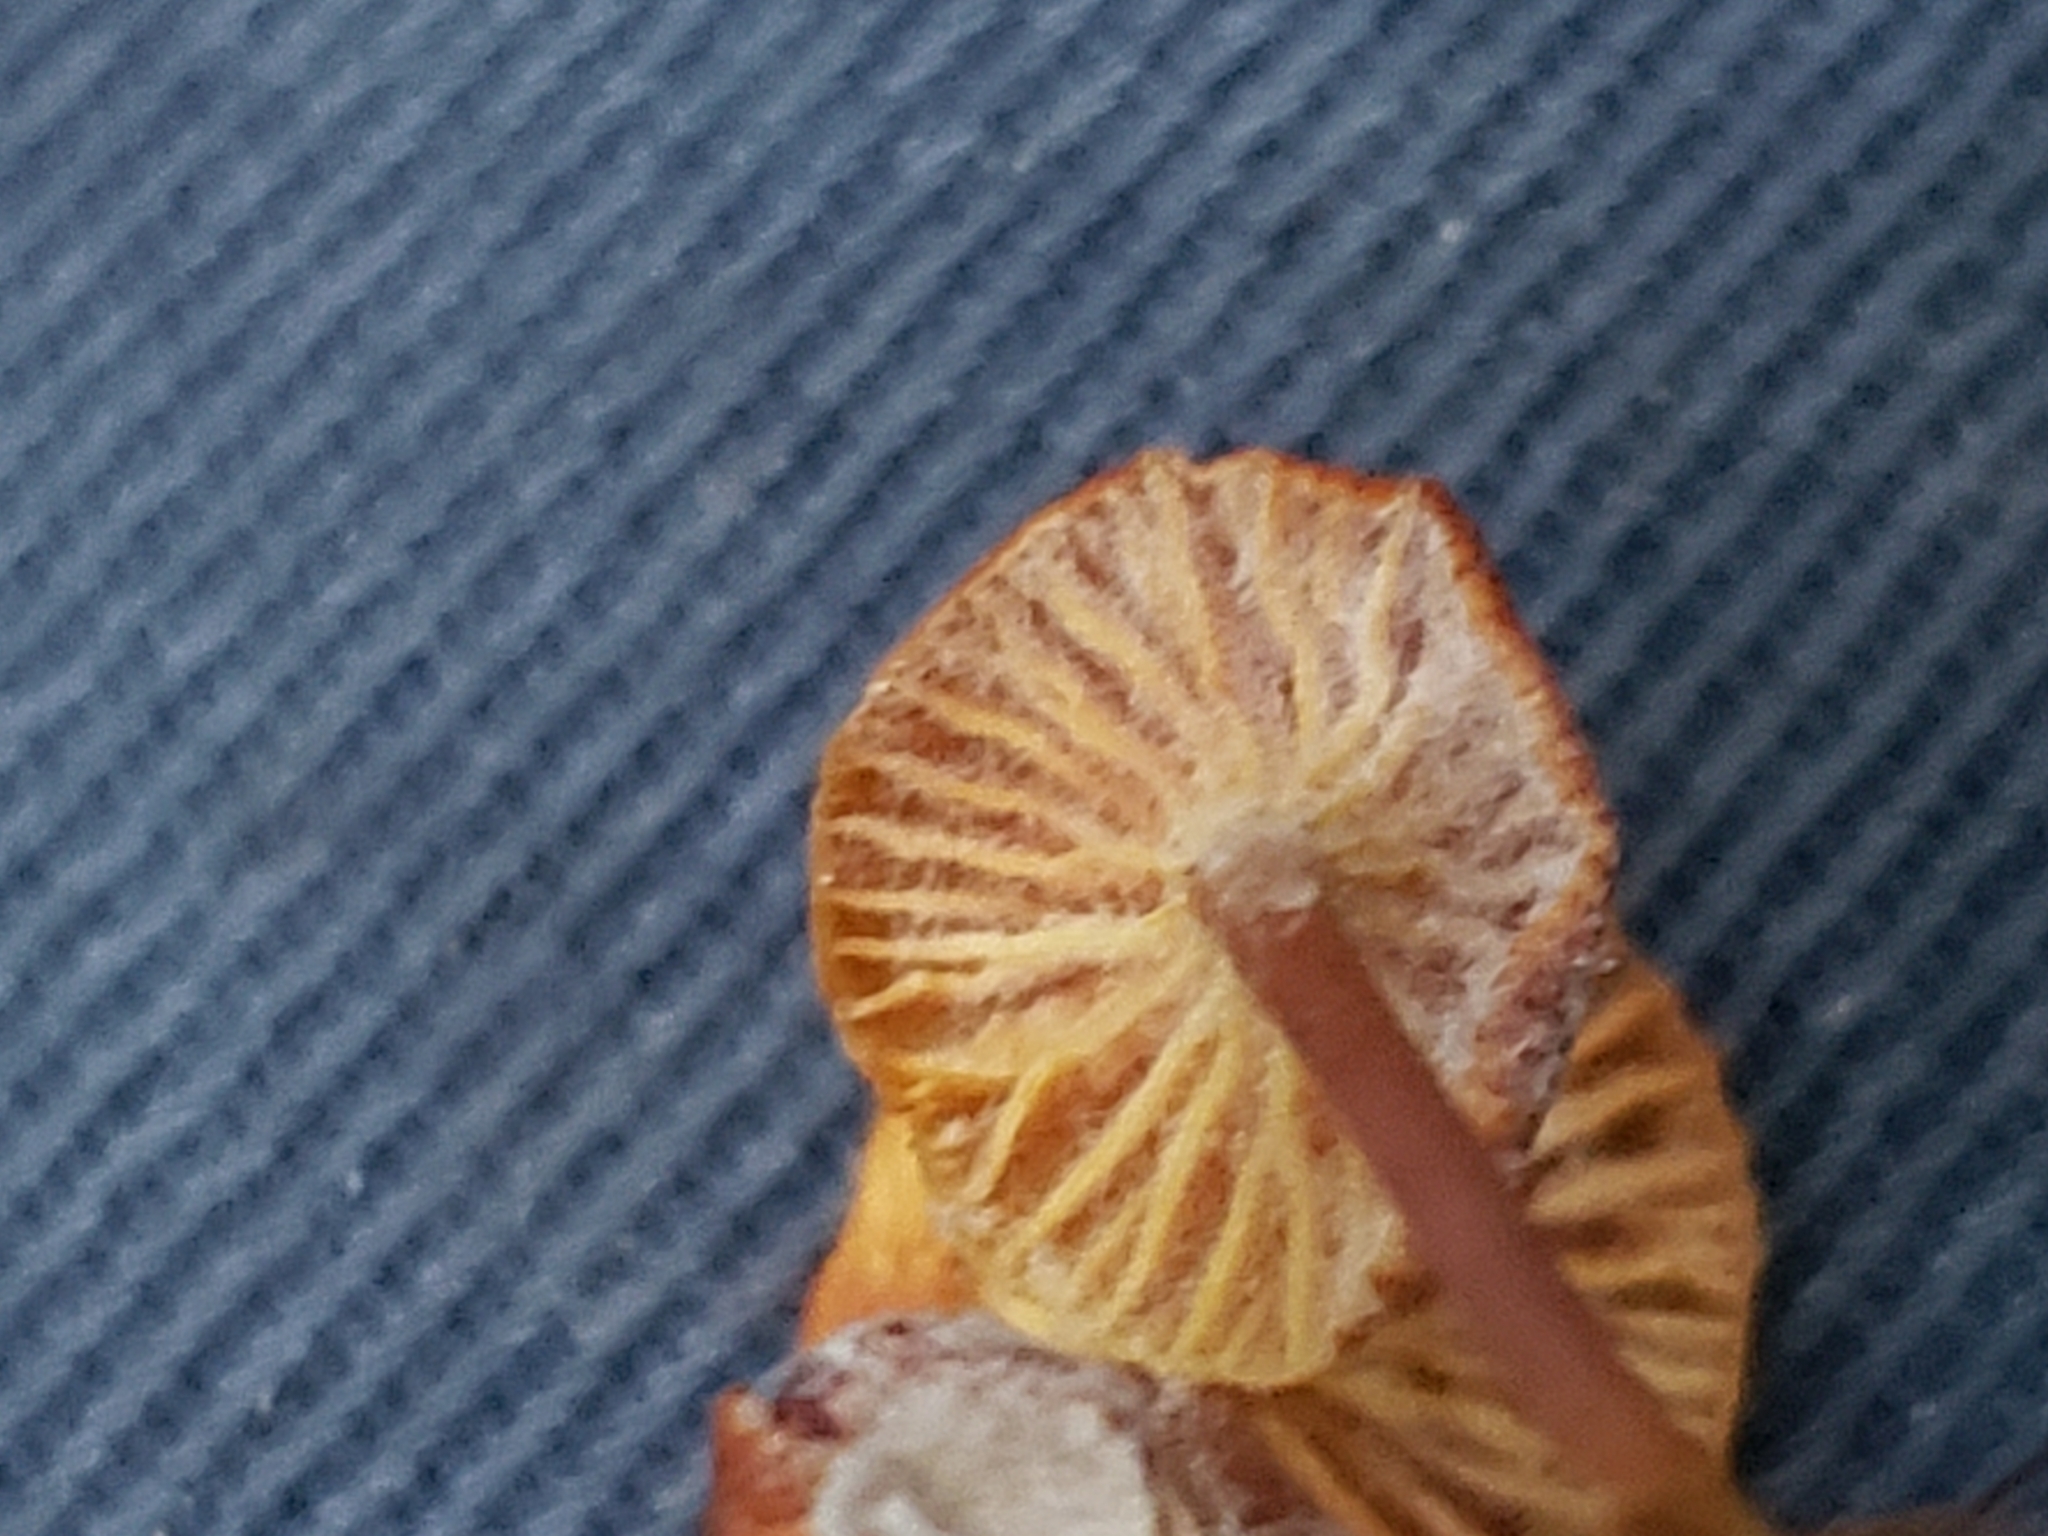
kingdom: Fungi
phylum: Basidiomycota
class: Agaricomycetes
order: Agaricales
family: Mycenaceae
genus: Xeromphalina
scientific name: Xeromphalina campanella
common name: Pinewood gingertail
